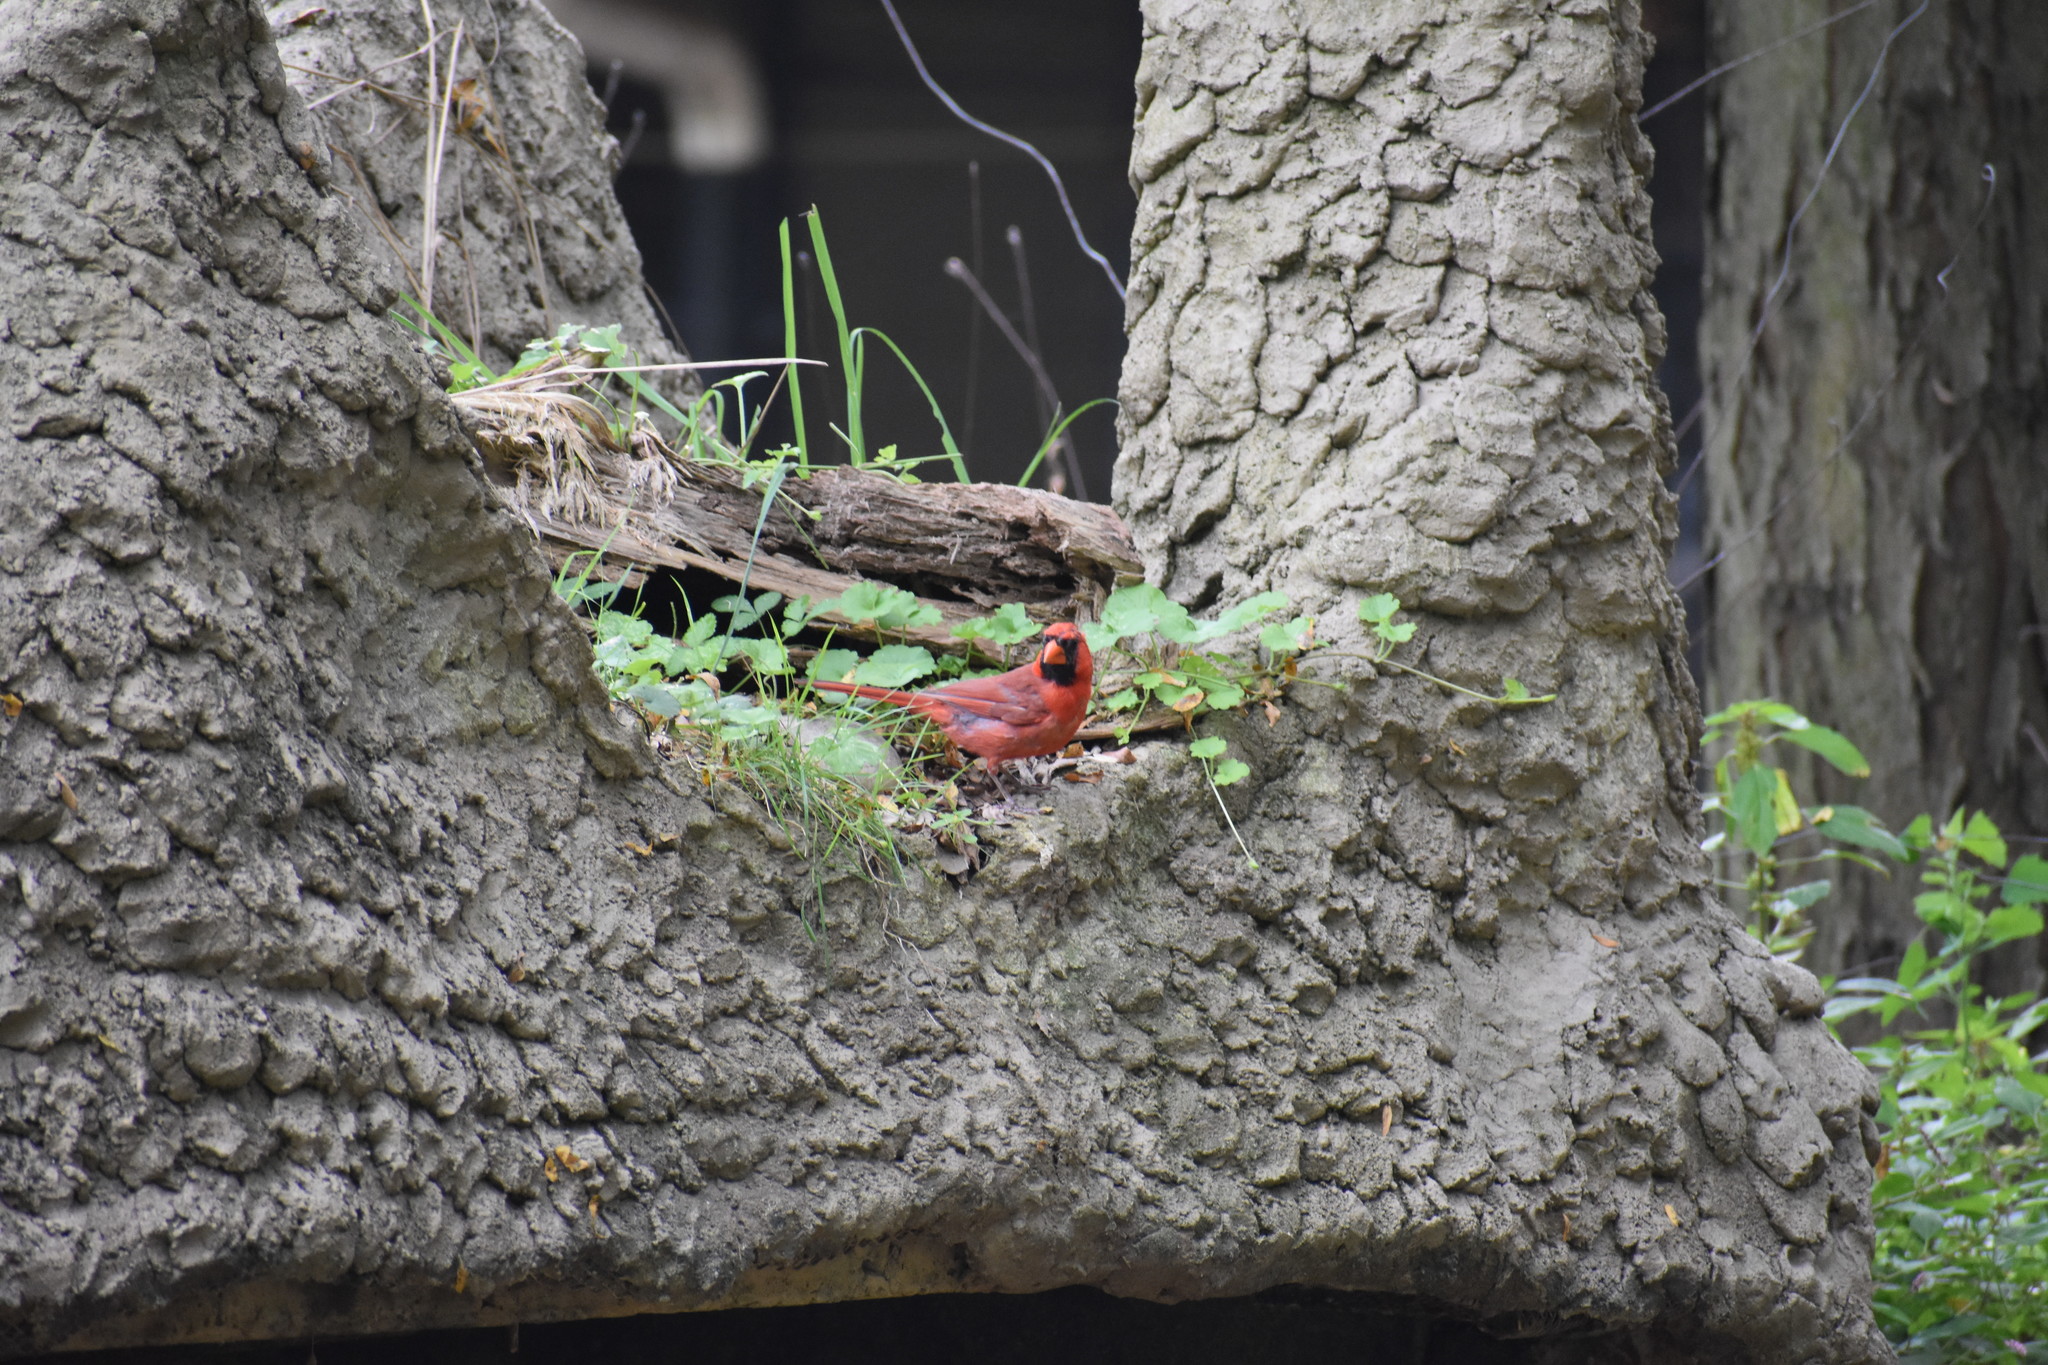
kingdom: Animalia
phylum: Chordata
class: Aves
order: Passeriformes
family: Cardinalidae
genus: Cardinalis
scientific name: Cardinalis cardinalis
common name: Northern cardinal
